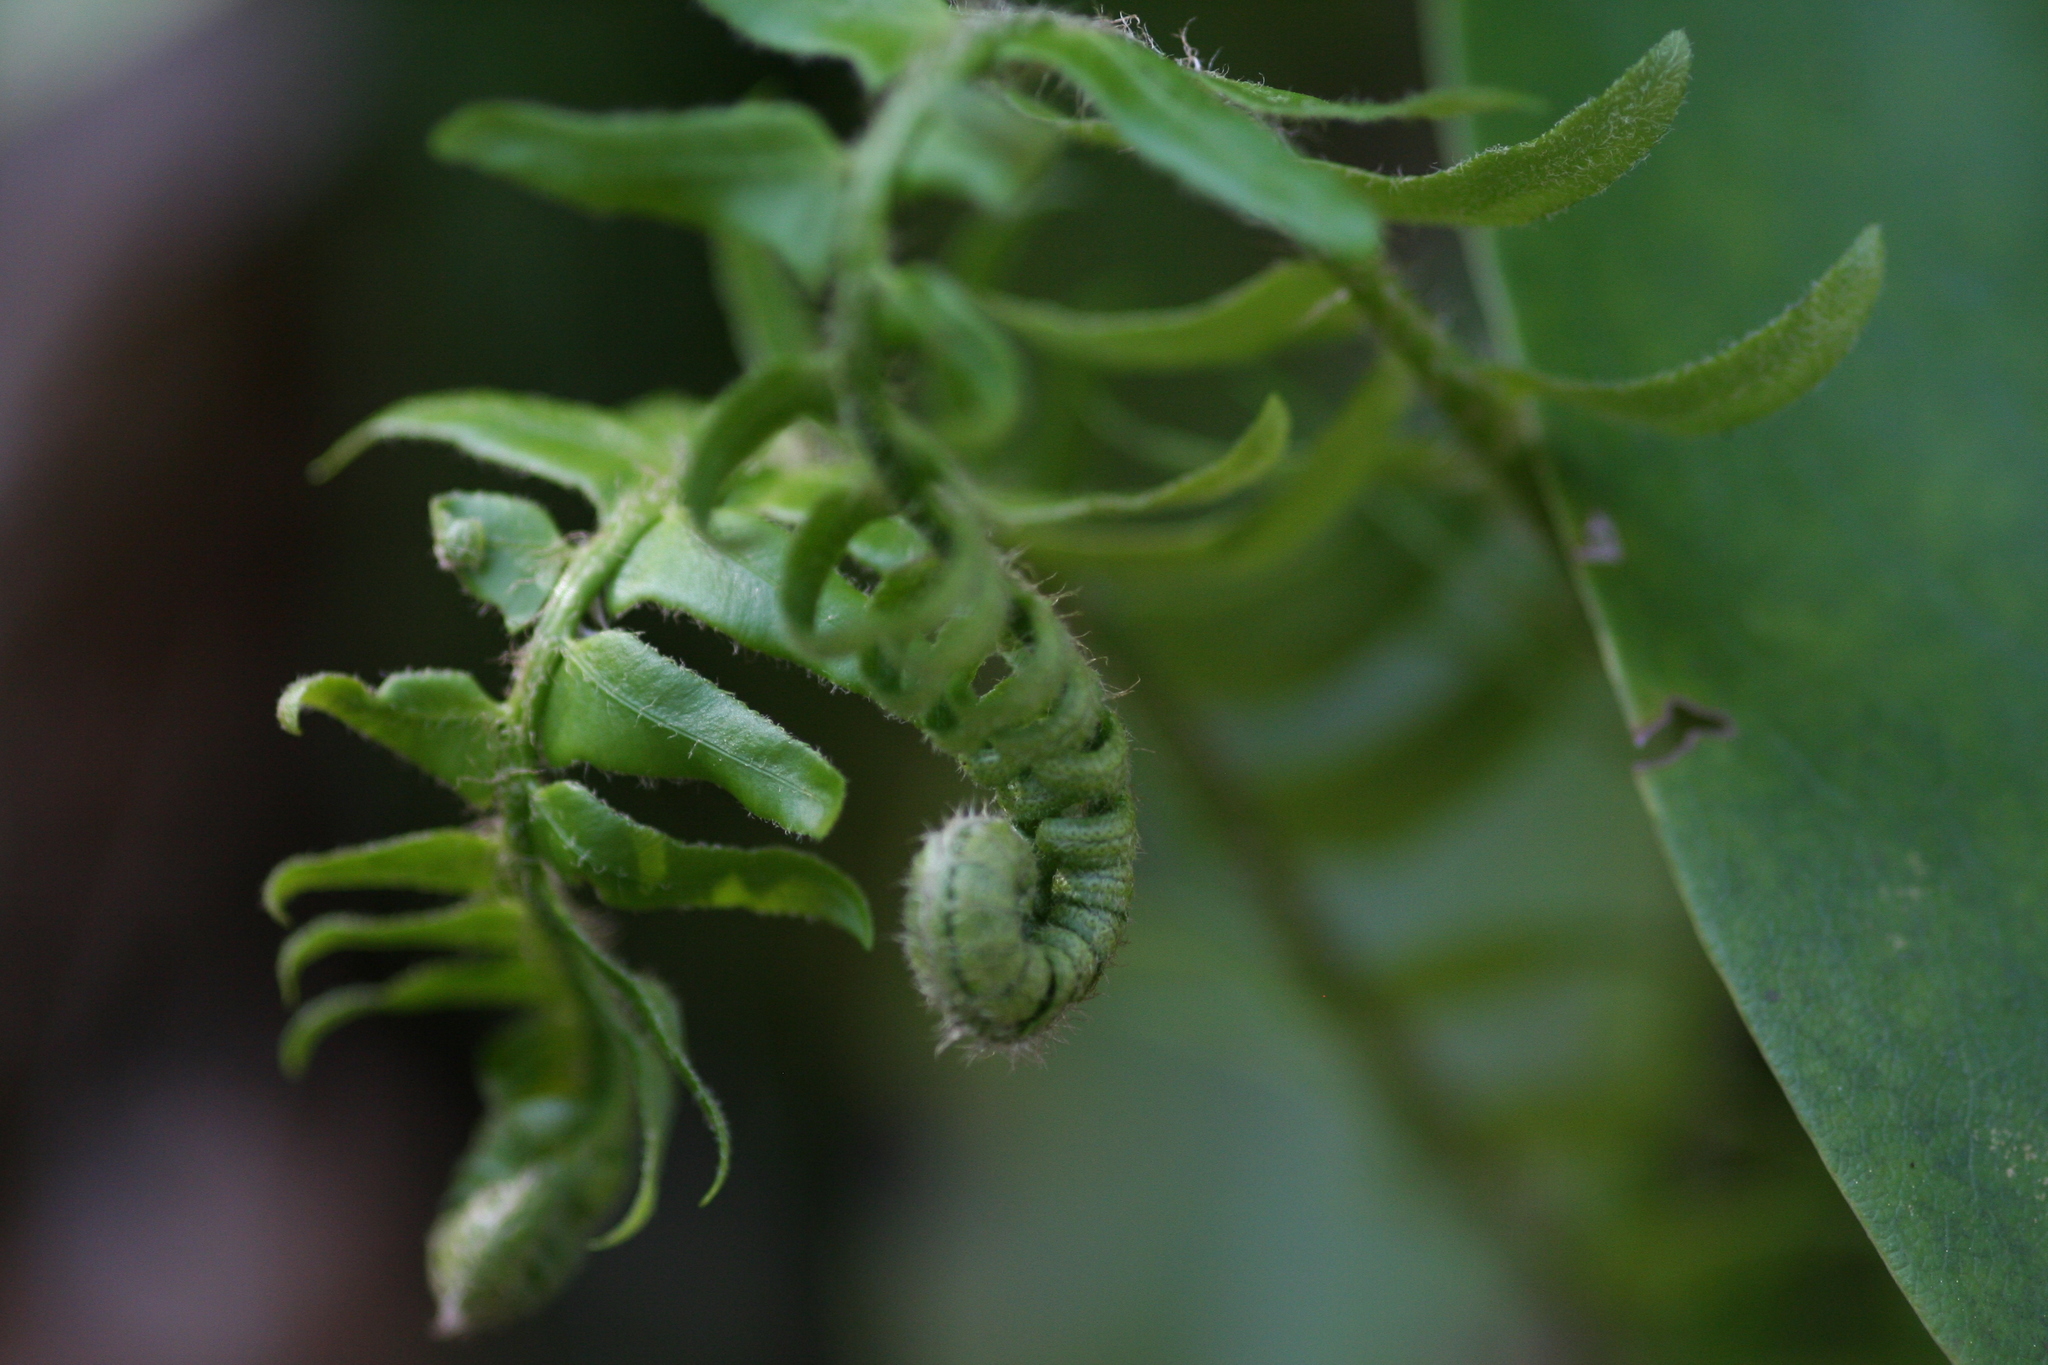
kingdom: Plantae
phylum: Tracheophyta
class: Polypodiopsida
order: Polypodiales
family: Dryopteridaceae
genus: Polystichum
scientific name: Polystichum acrostichoides
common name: Christmas fern
